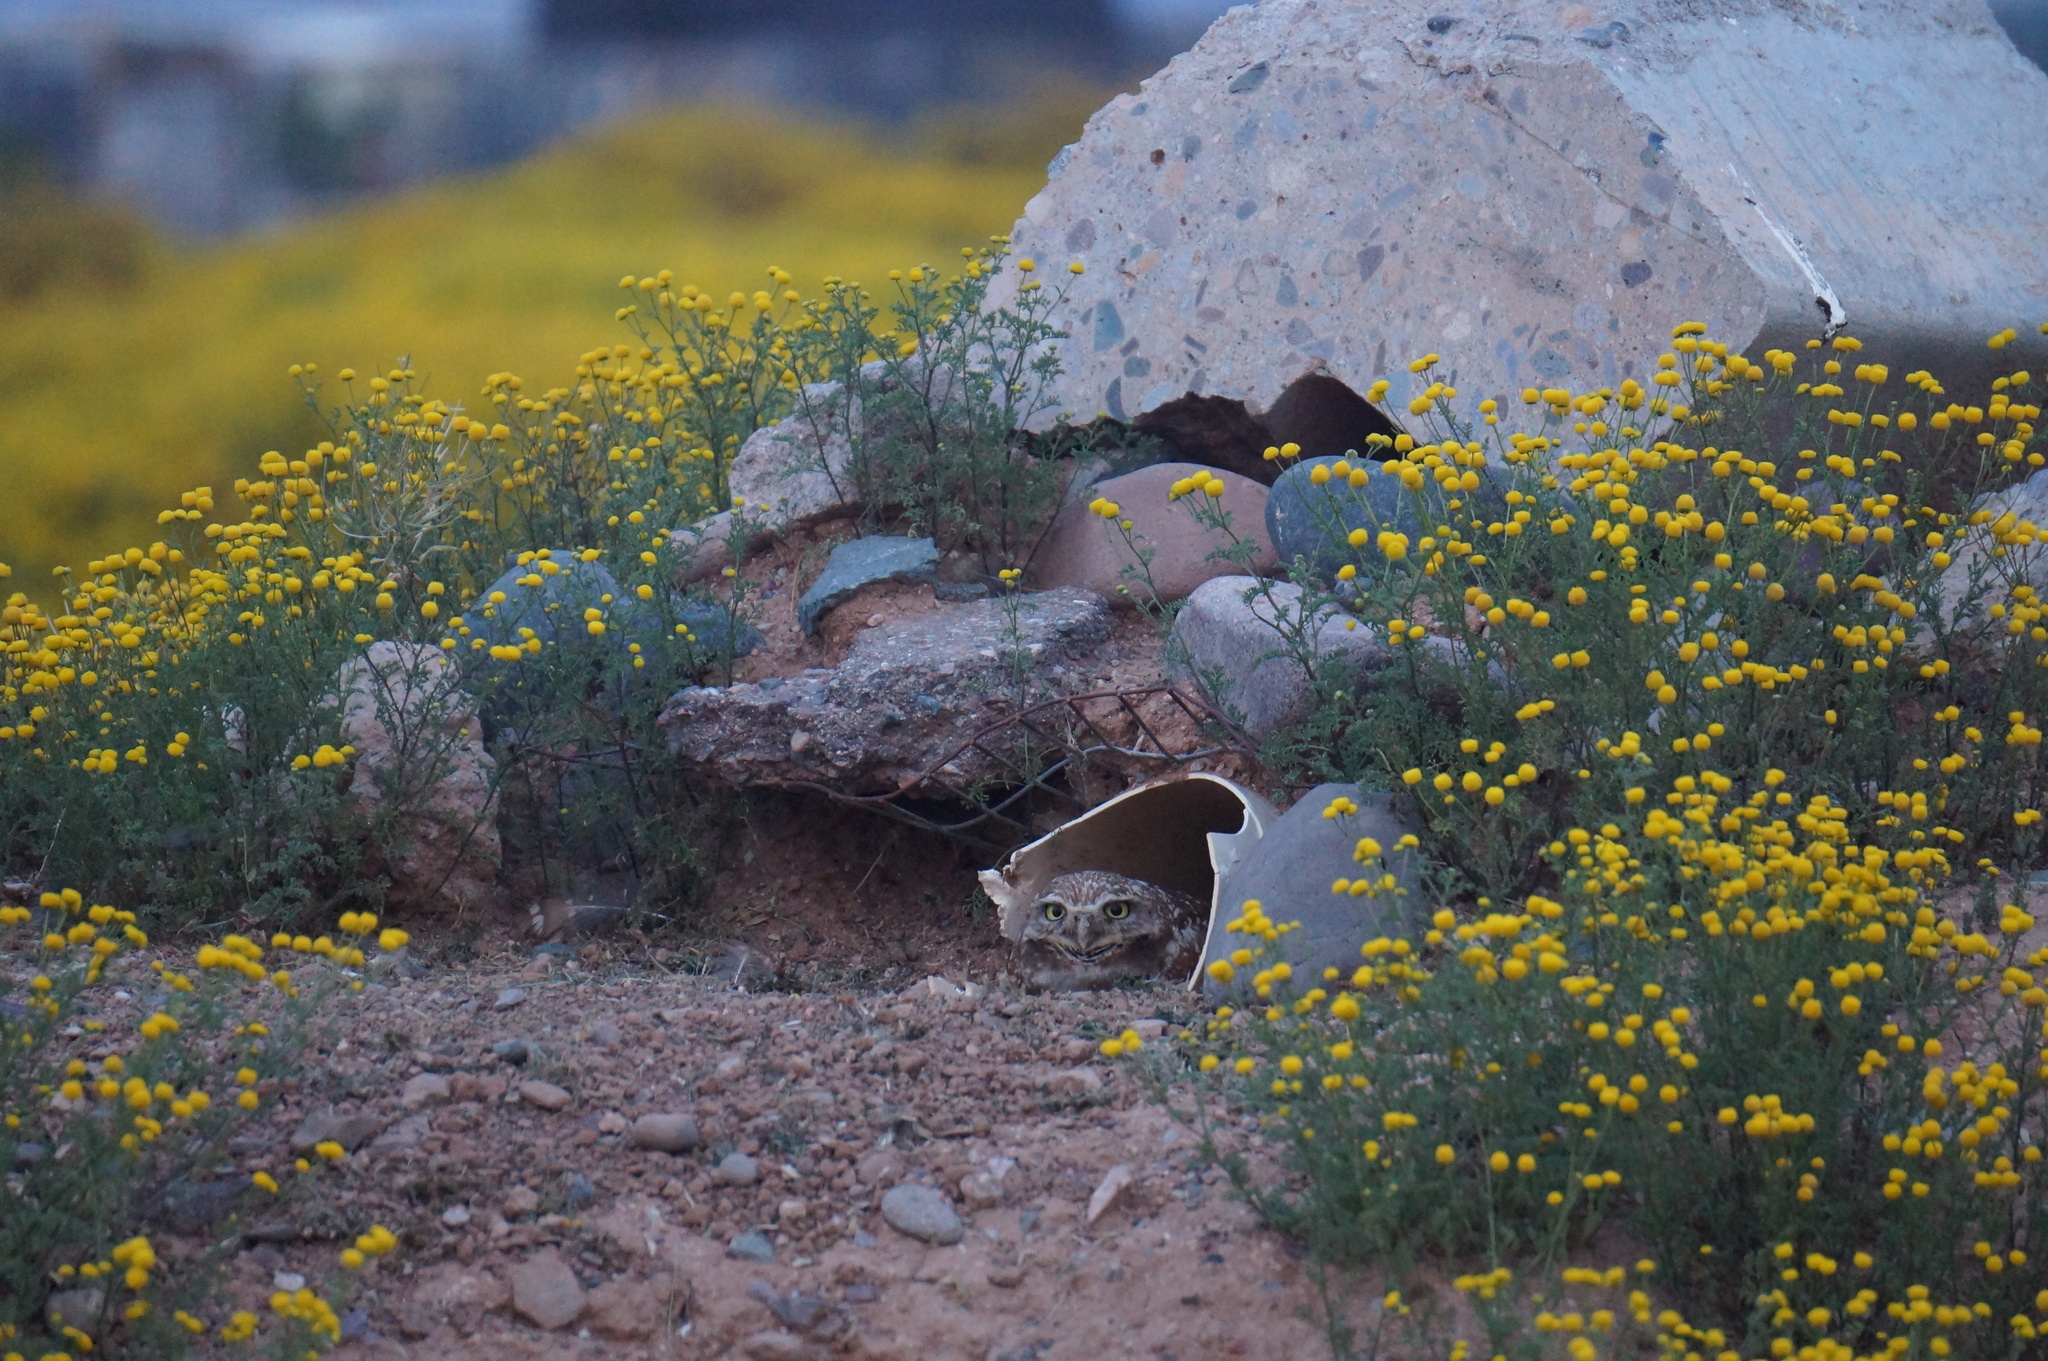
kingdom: Animalia
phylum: Chordata
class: Aves
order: Strigiformes
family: Strigidae
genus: Athene
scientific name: Athene cunicularia
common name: Burrowing owl
